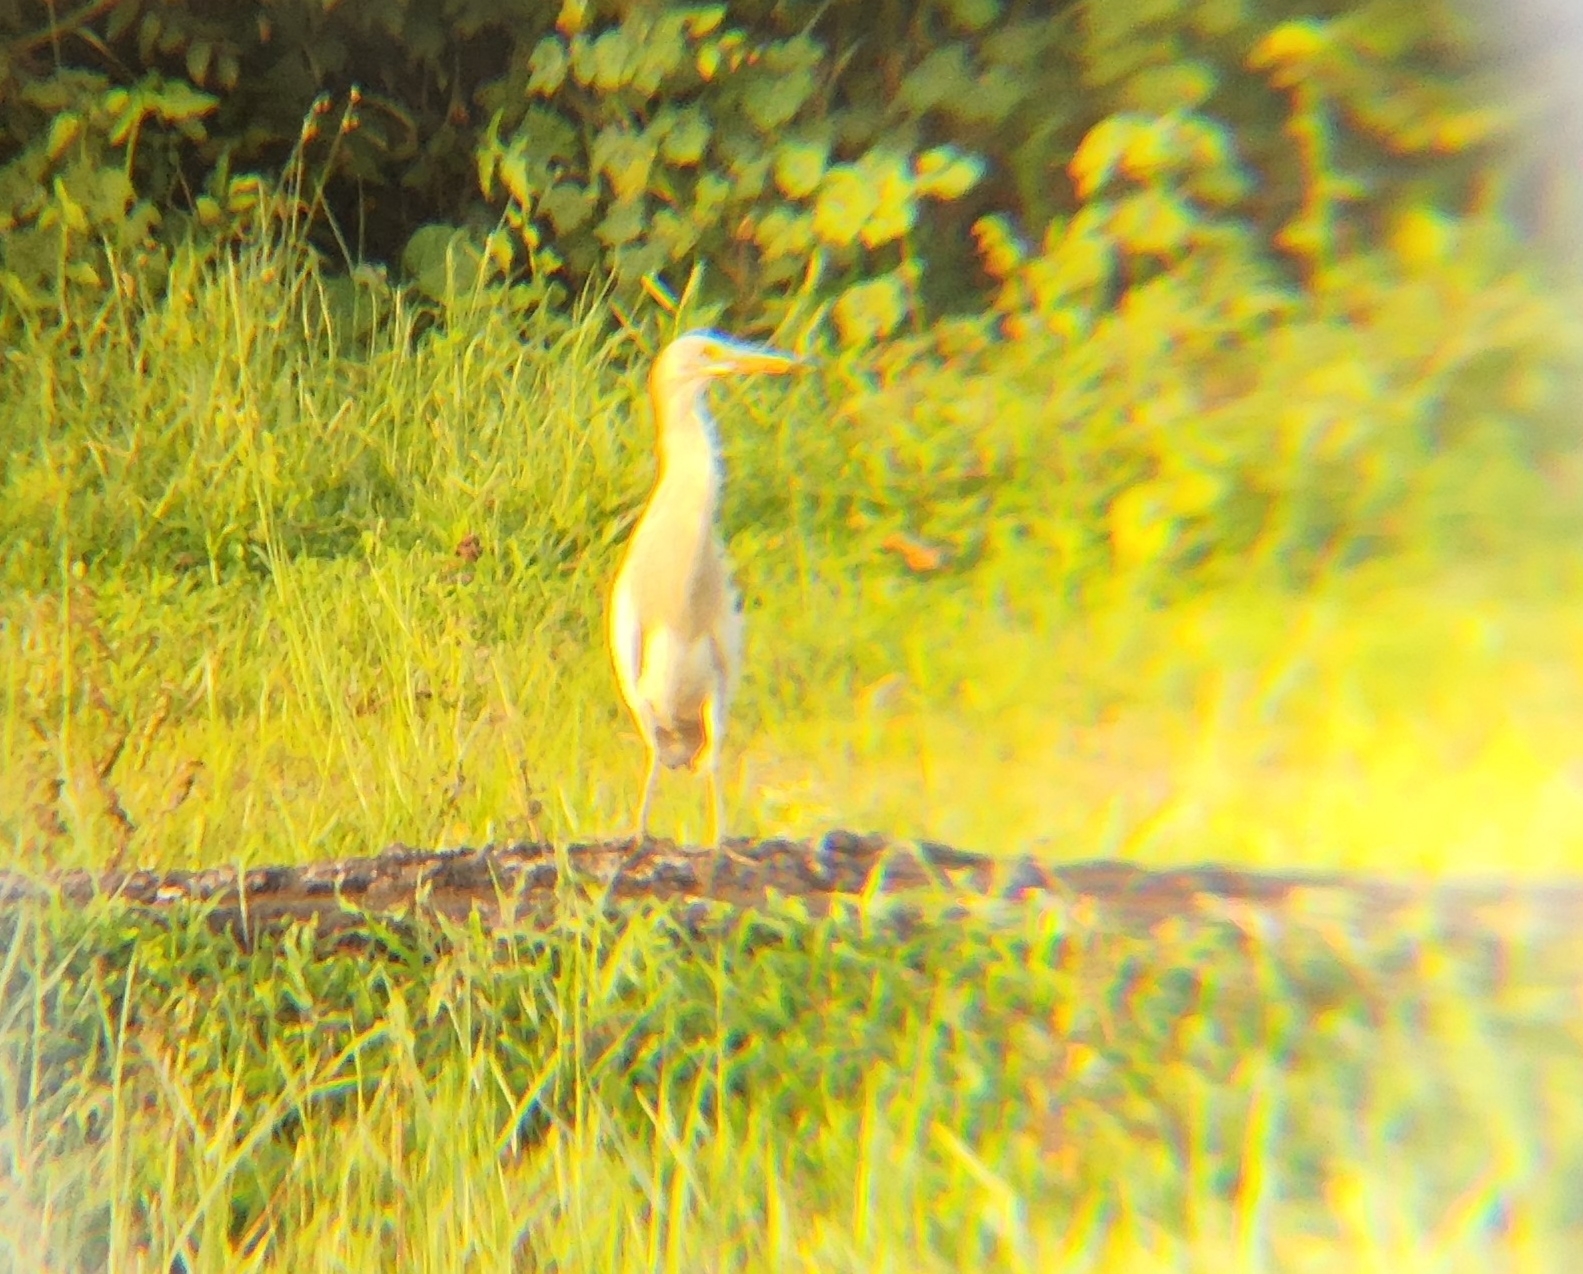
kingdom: Animalia
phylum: Chordata
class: Aves
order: Pelecaniformes
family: Ardeidae
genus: Ardeola
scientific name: Ardeola grayii
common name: Indian pond heron
